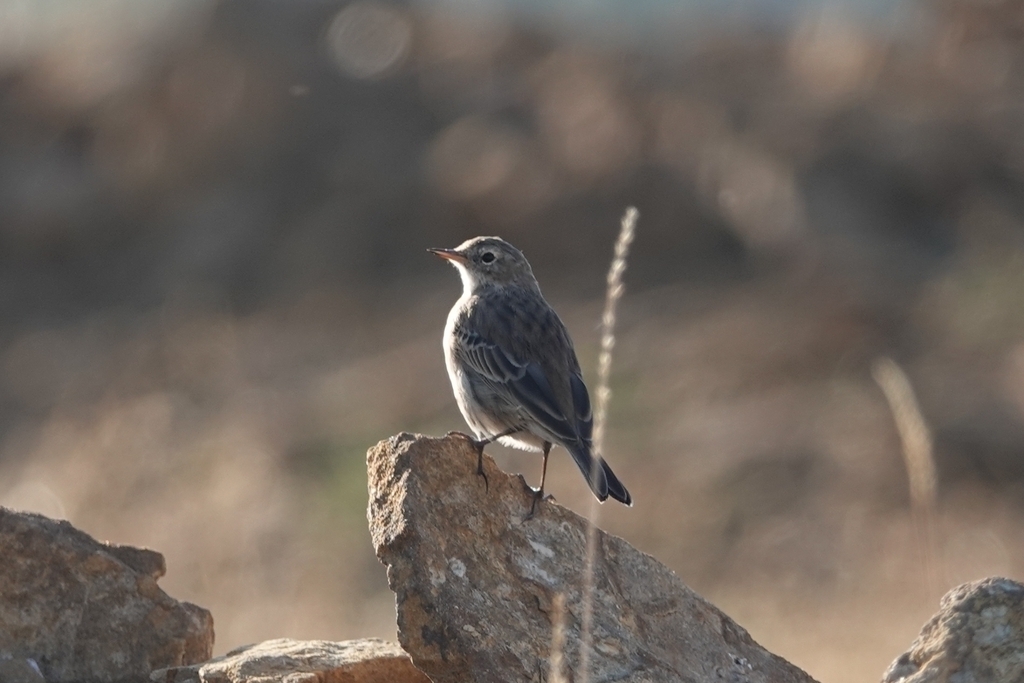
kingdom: Animalia
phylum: Chordata
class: Aves
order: Passeriformes
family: Motacillidae
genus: Anthus
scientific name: Anthus spinoletta
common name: Water pipit
